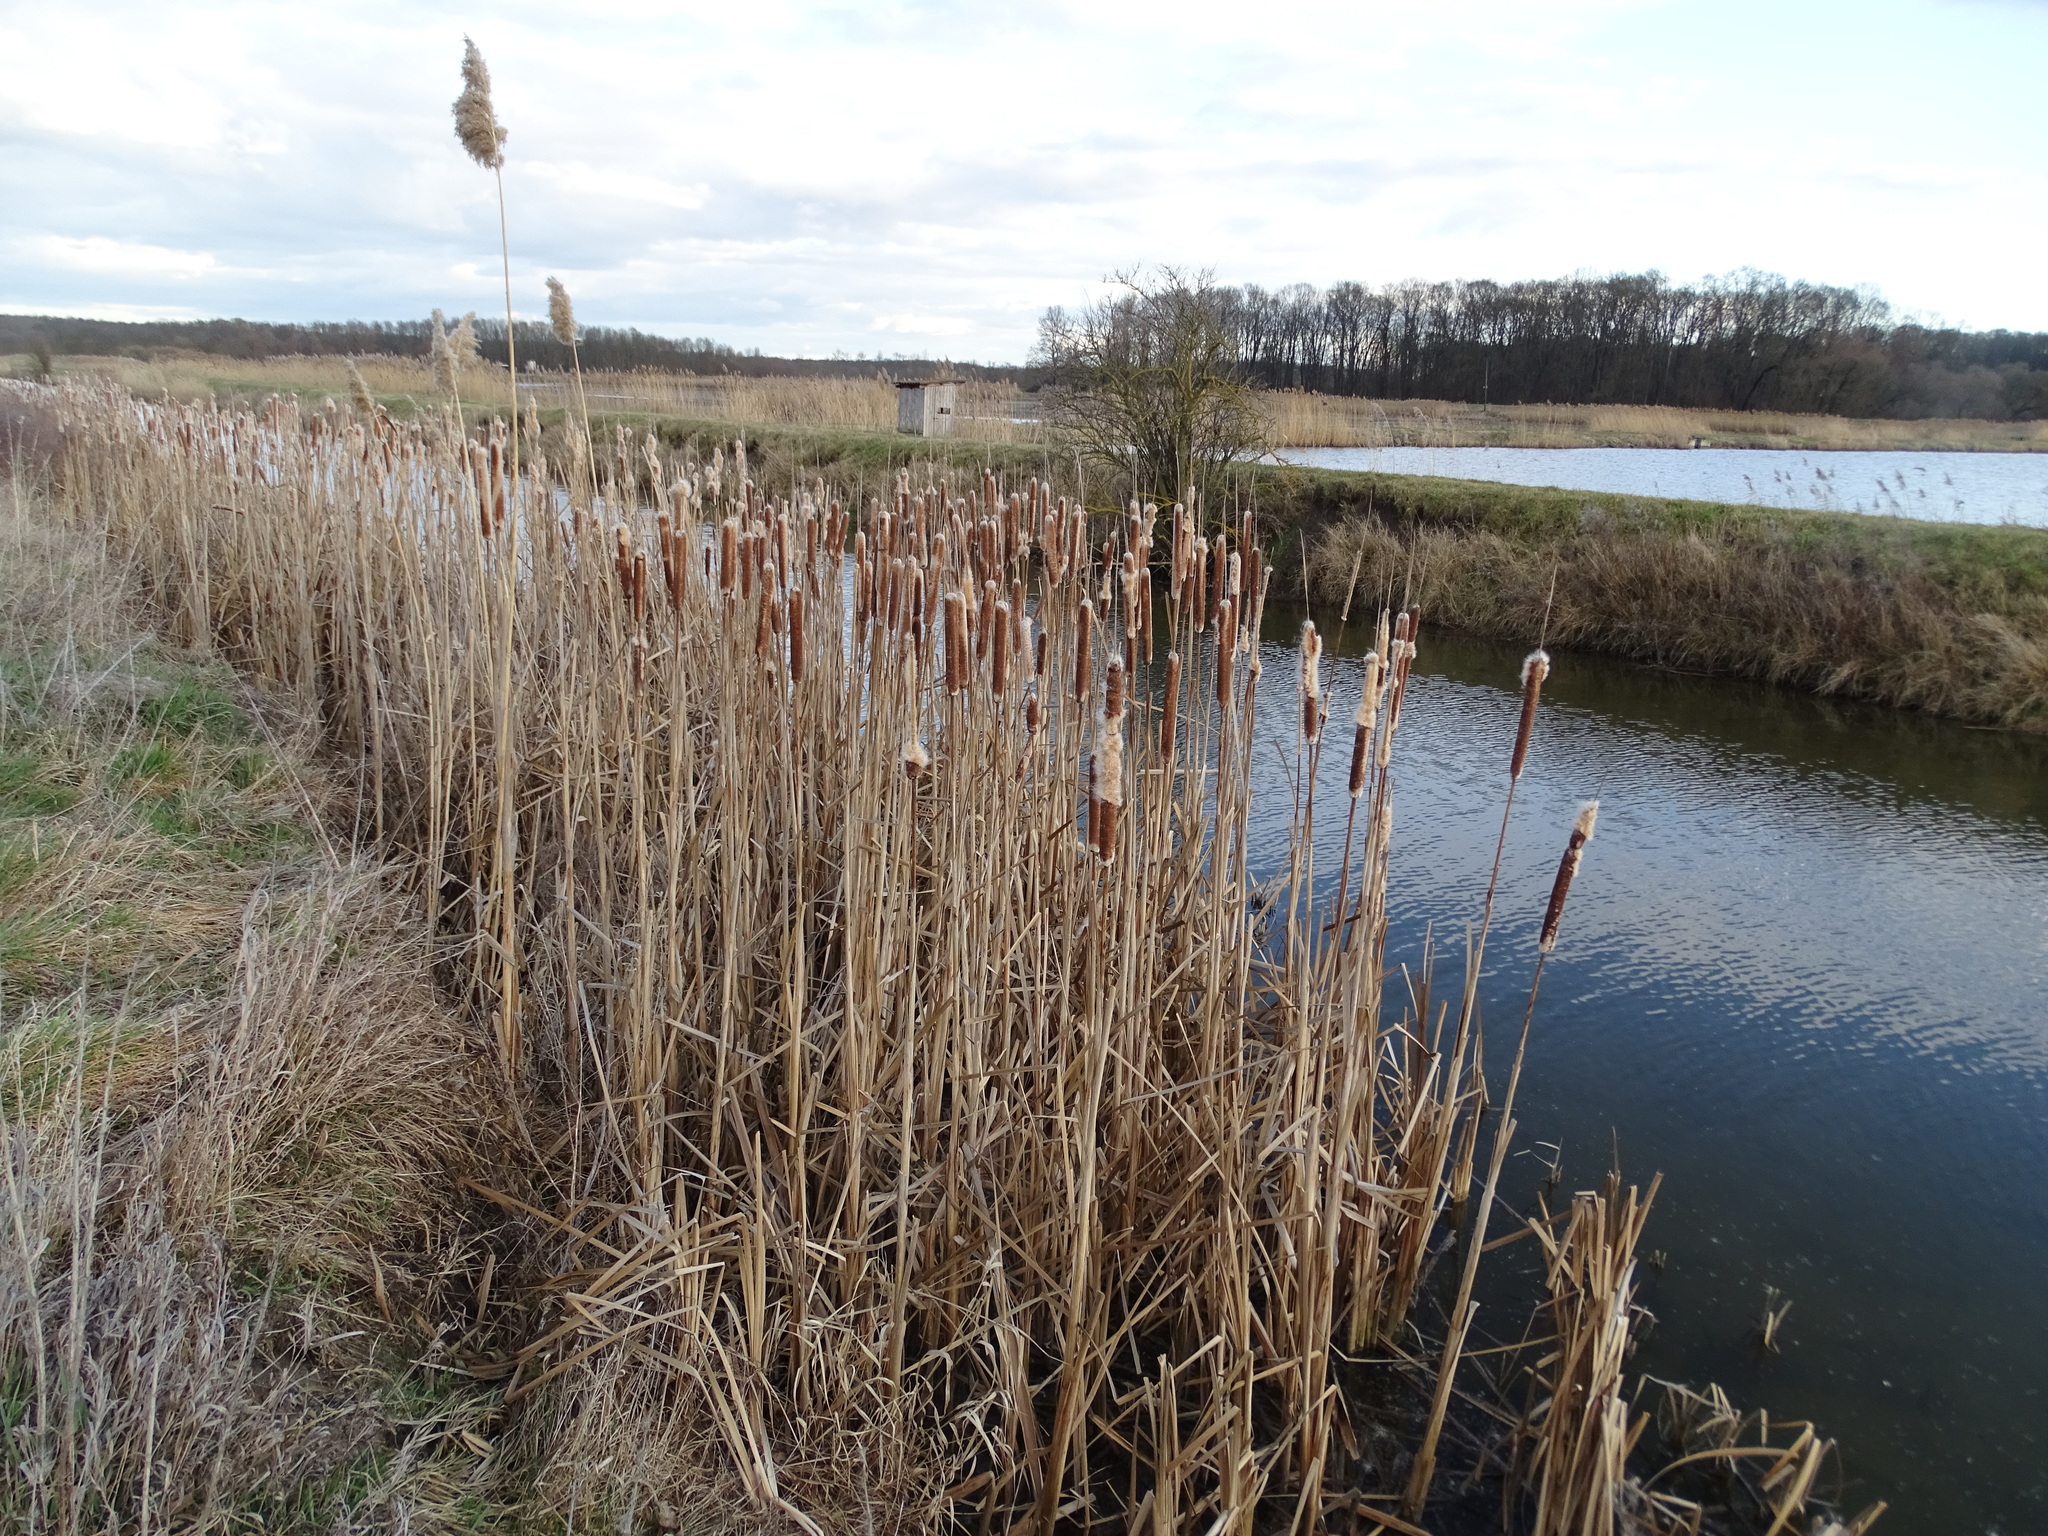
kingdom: Plantae
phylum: Tracheophyta
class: Liliopsida
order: Poales
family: Typhaceae
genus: Typha
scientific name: Typha latifolia
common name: Broadleaf cattail
